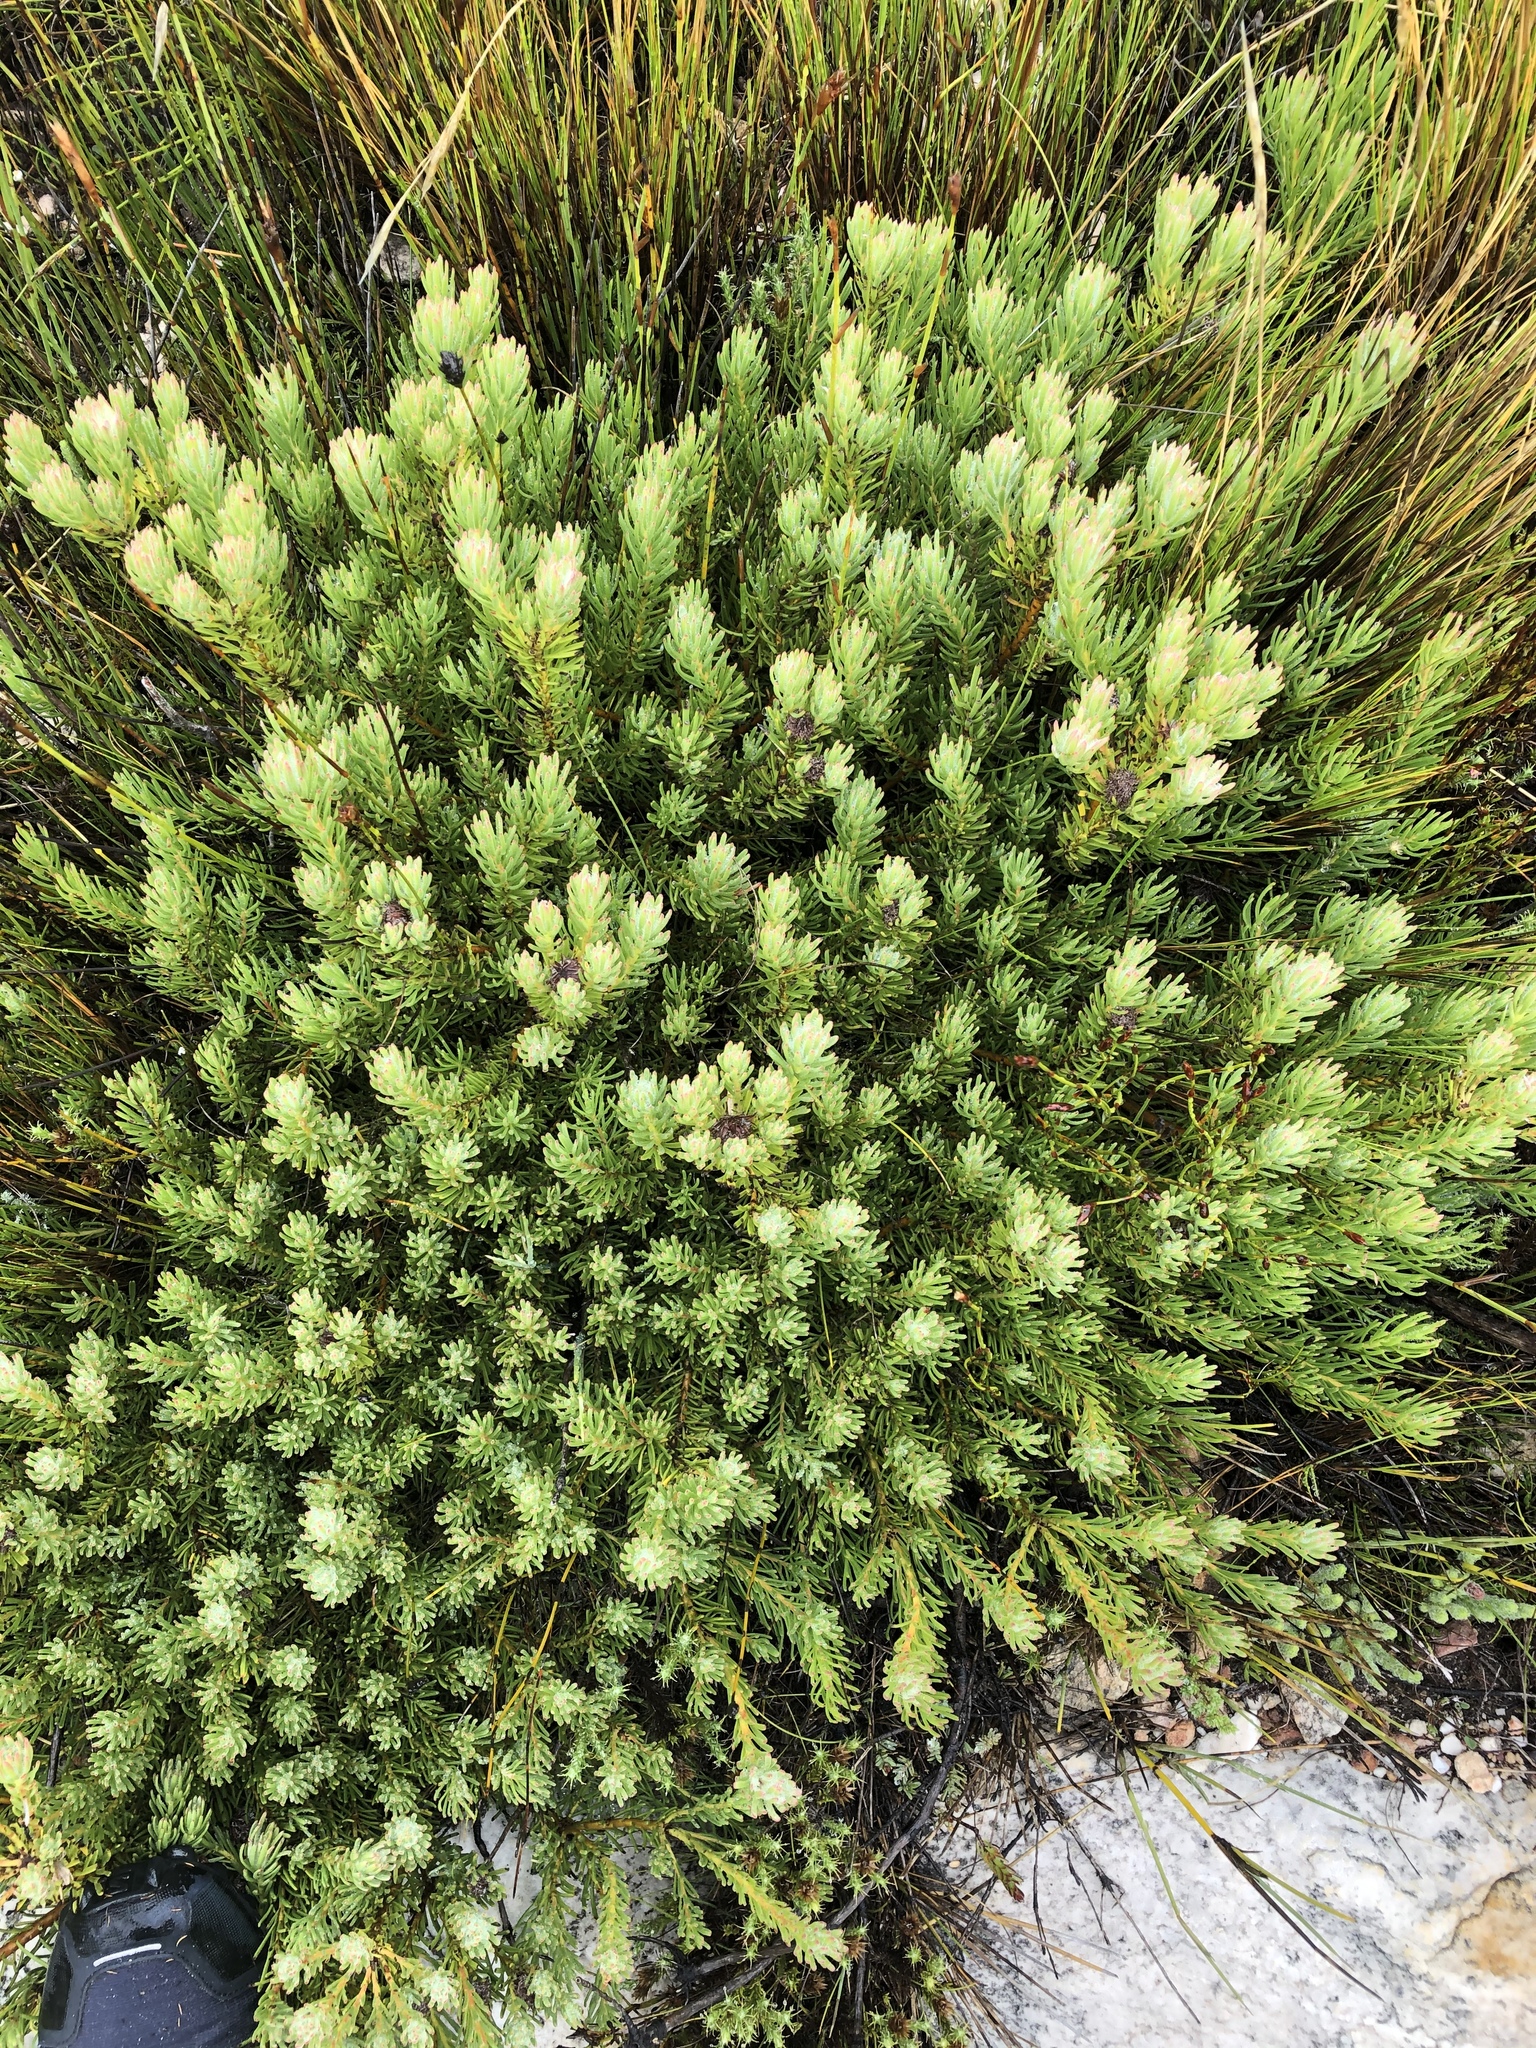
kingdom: Plantae
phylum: Tracheophyta
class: Magnoliopsida
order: Proteales
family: Proteaceae
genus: Protea
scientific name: Protea montana
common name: Swartberg sugarbush
